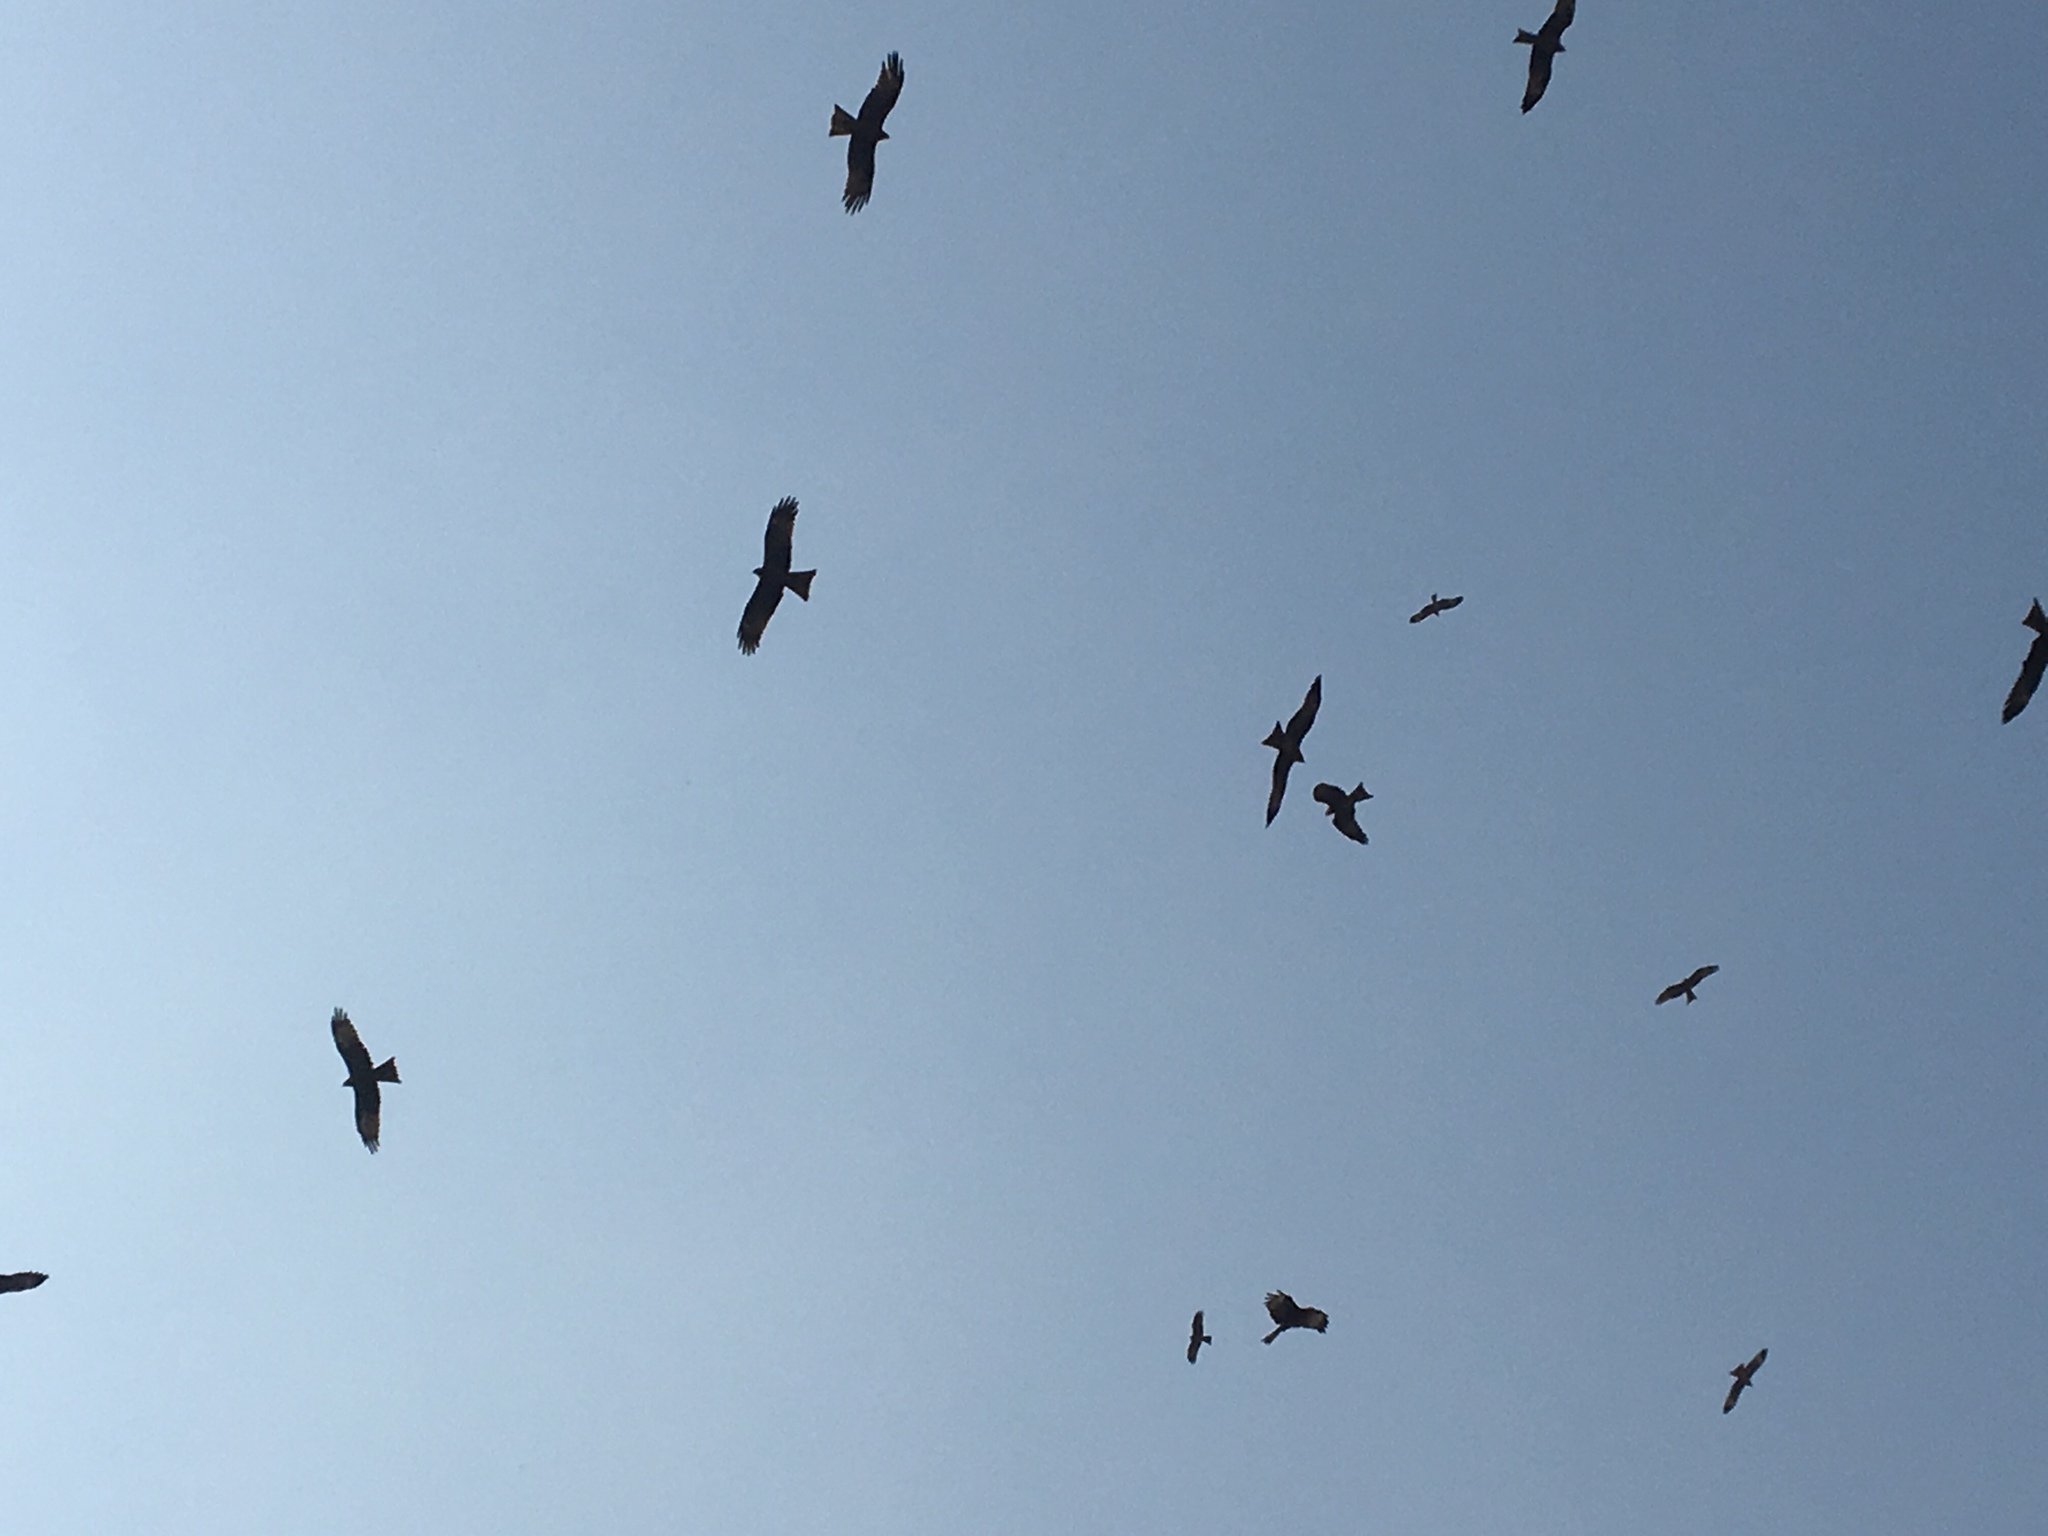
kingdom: Animalia
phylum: Chordata
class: Aves
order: Accipitriformes
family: Accipitridae
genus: Milvus
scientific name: Milvus migrans
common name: Black kite
